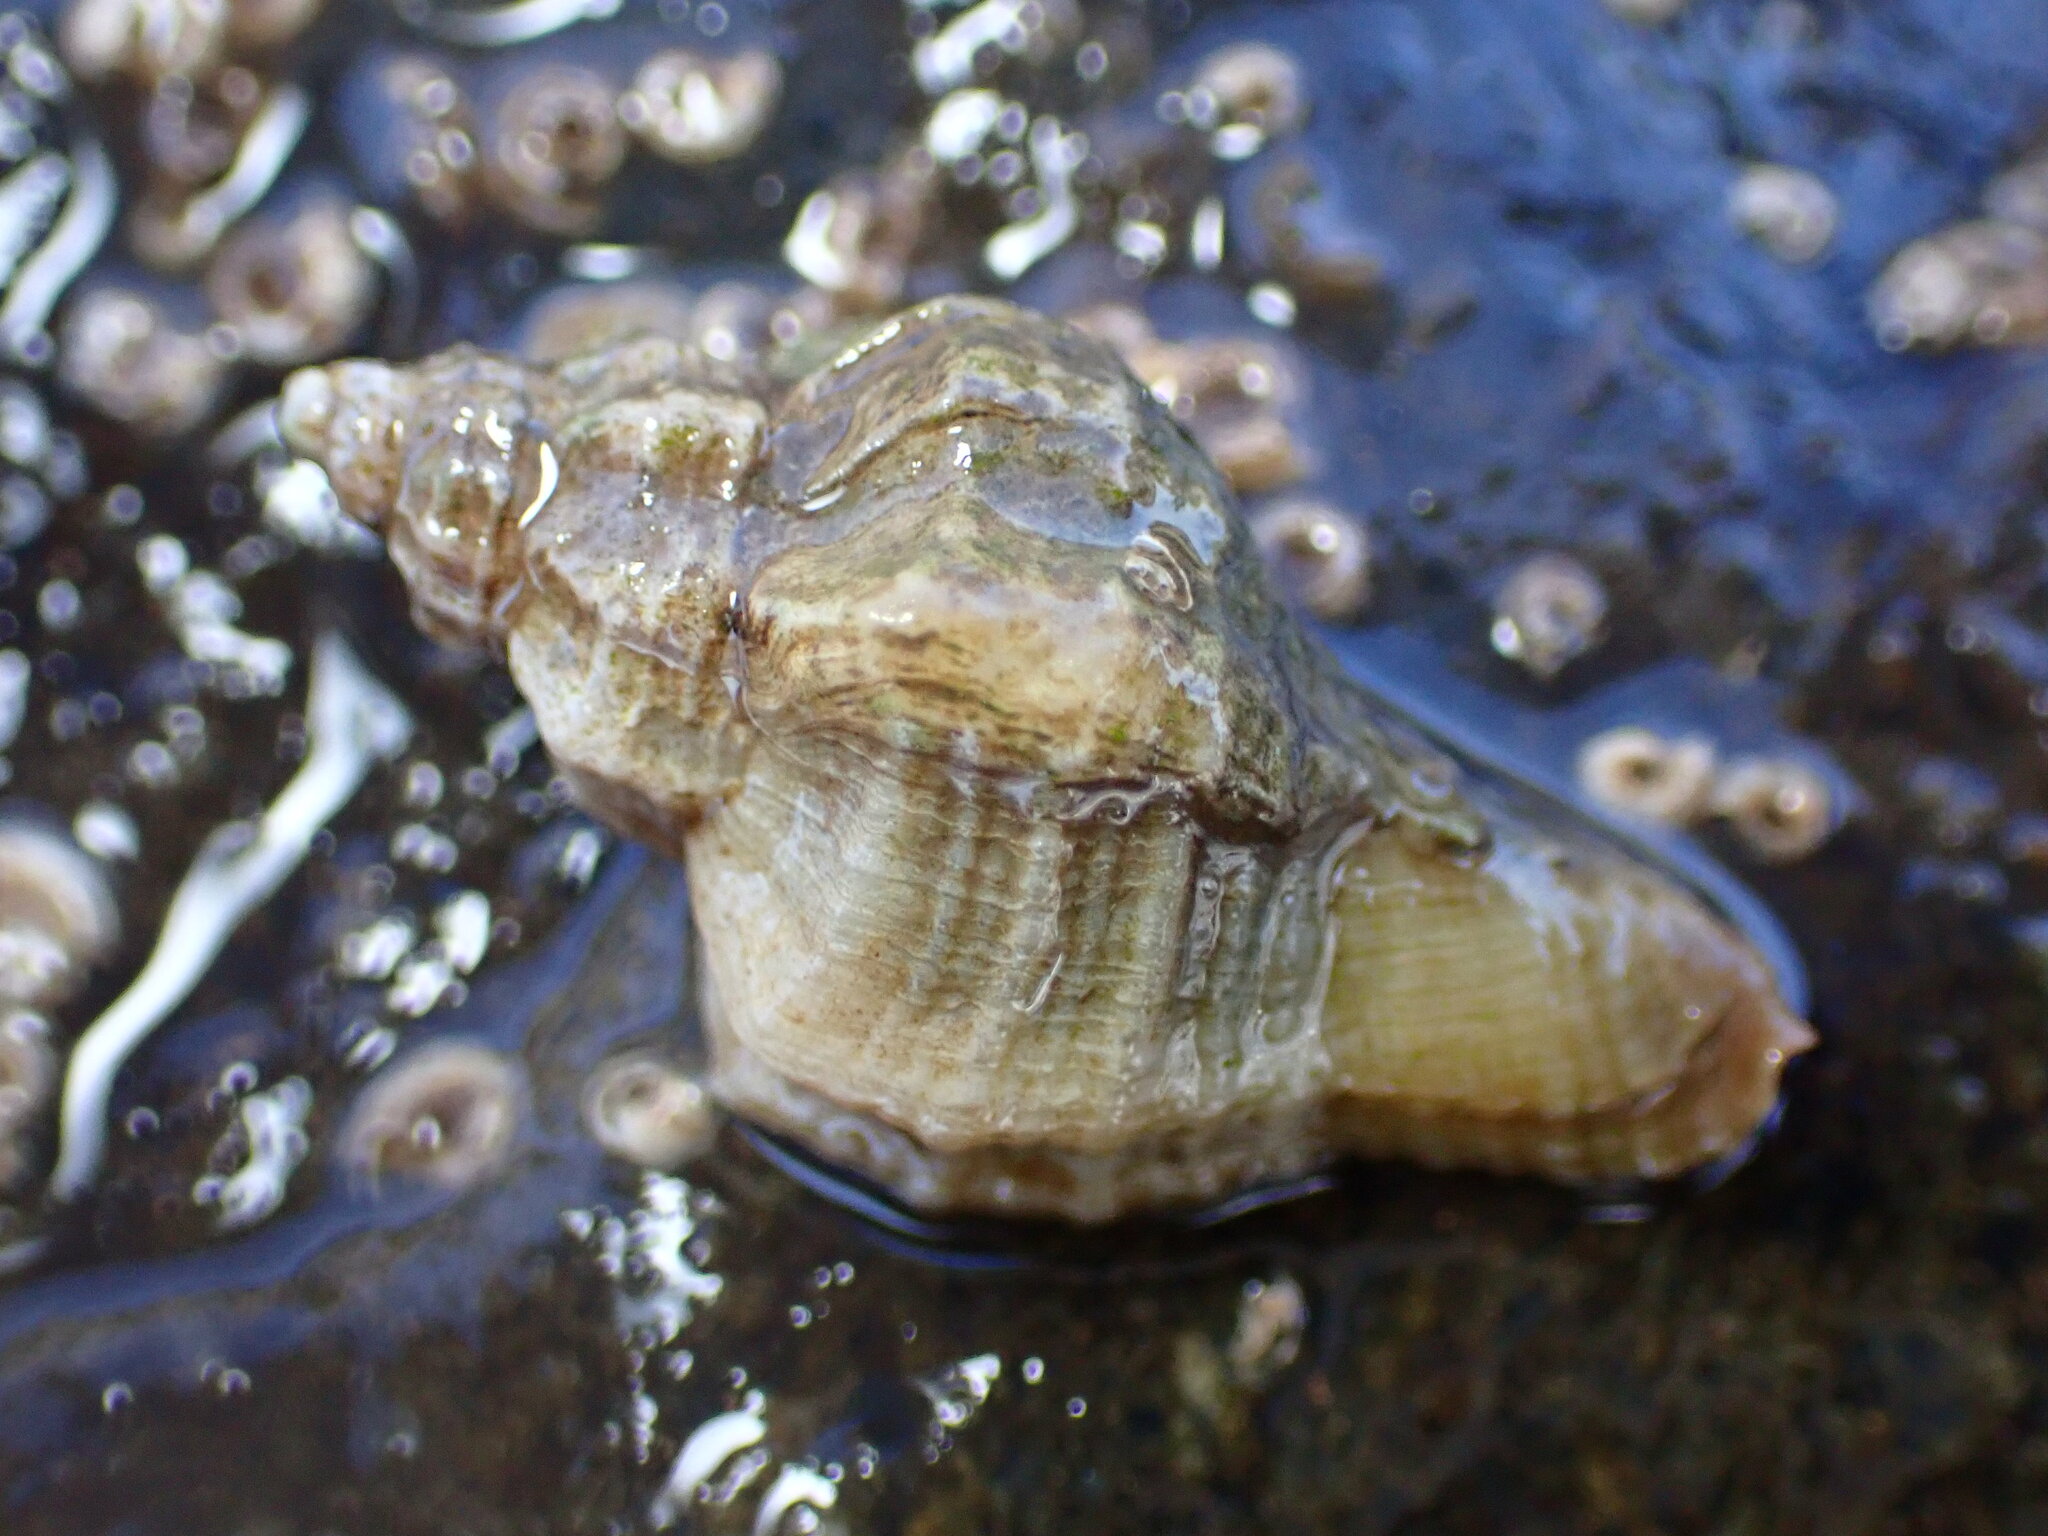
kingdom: Animalia
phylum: Mollusca
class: Gastropoda
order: Neogastropoda
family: Muricidae
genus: Ocinebrellus
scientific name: Ocinebrellus inornatus
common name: Asian drill snail
